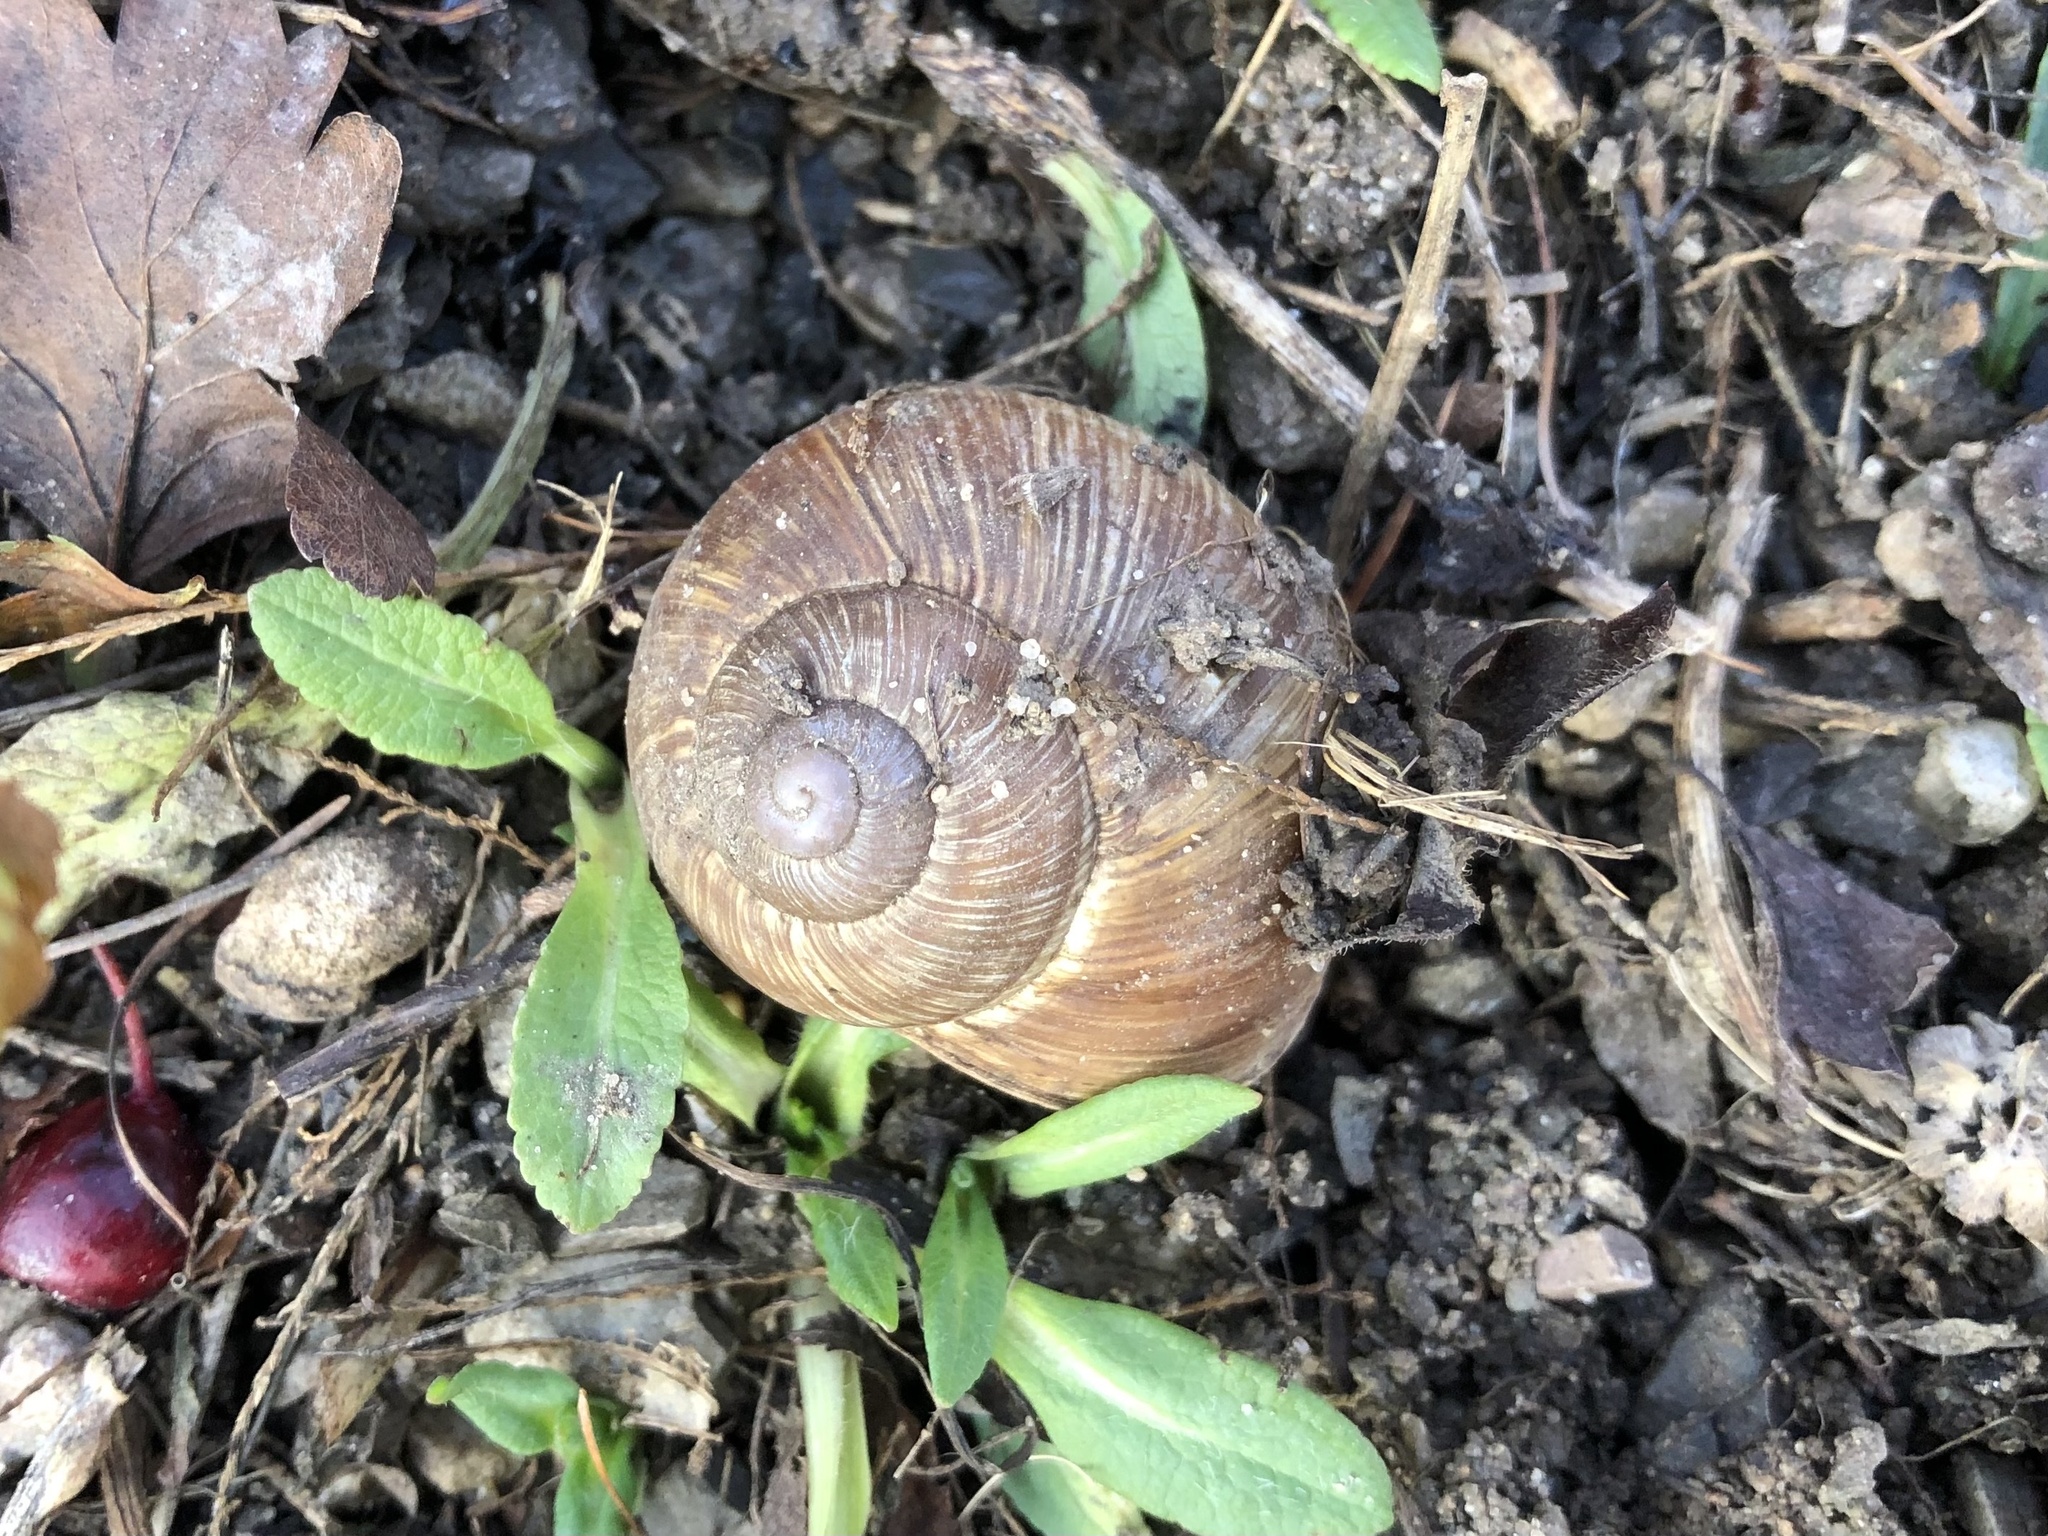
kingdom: Animalia
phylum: Mollusca
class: Gastropoda
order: Stylommatophora
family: Helicidae
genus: Helix
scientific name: Helix pomatia
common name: Roman snail
